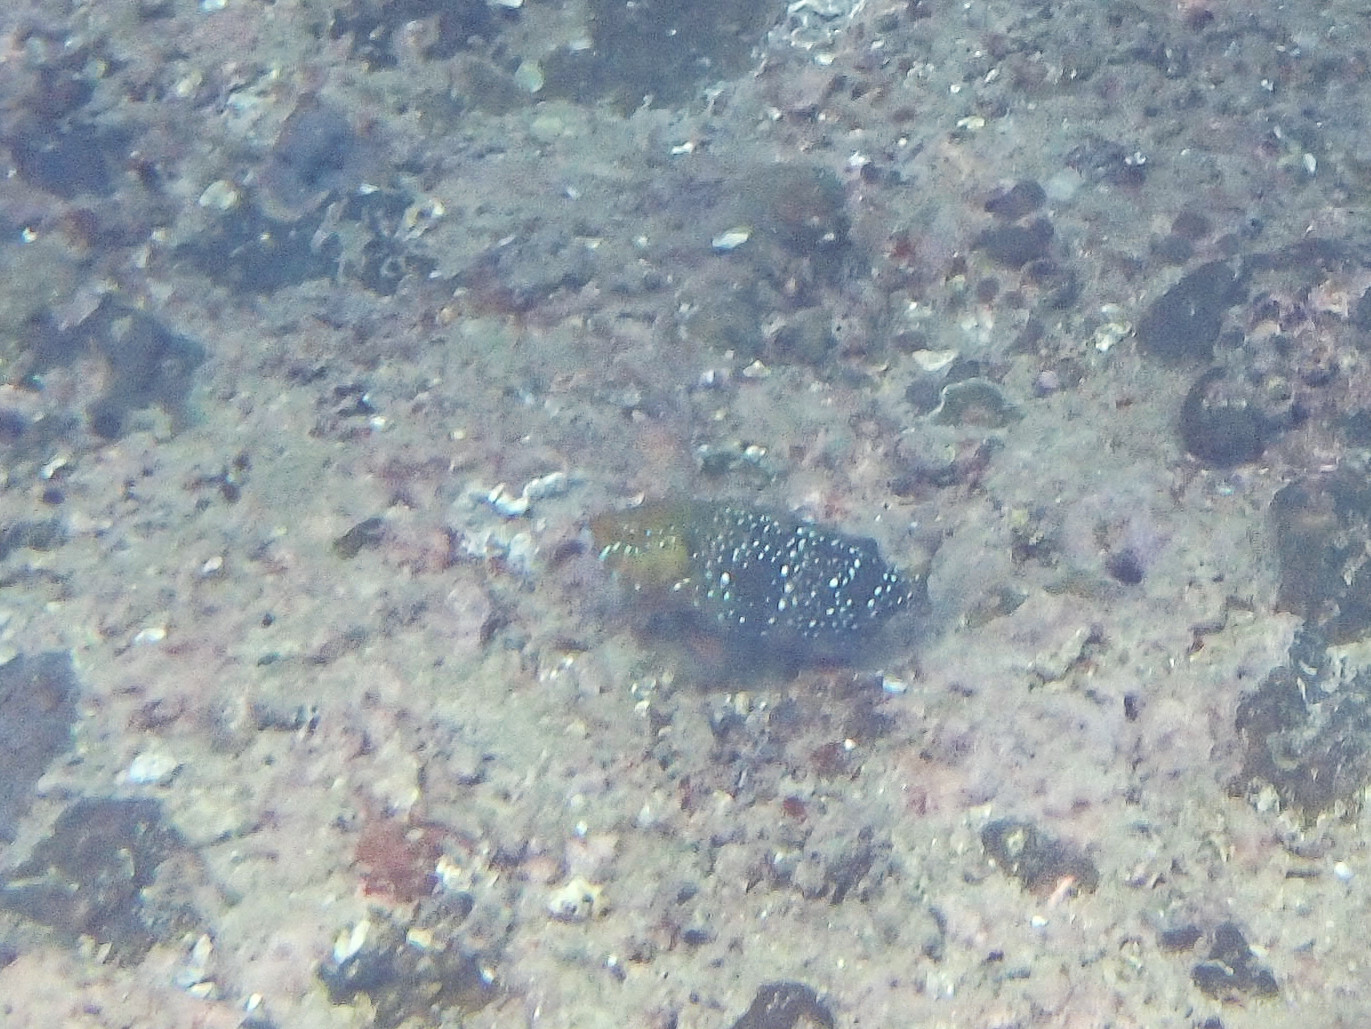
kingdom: Animalia
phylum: Chordata
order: Perciformes
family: Scaridae
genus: Scarus
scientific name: Scarus prasiognathos
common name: Singapore parrotfish
